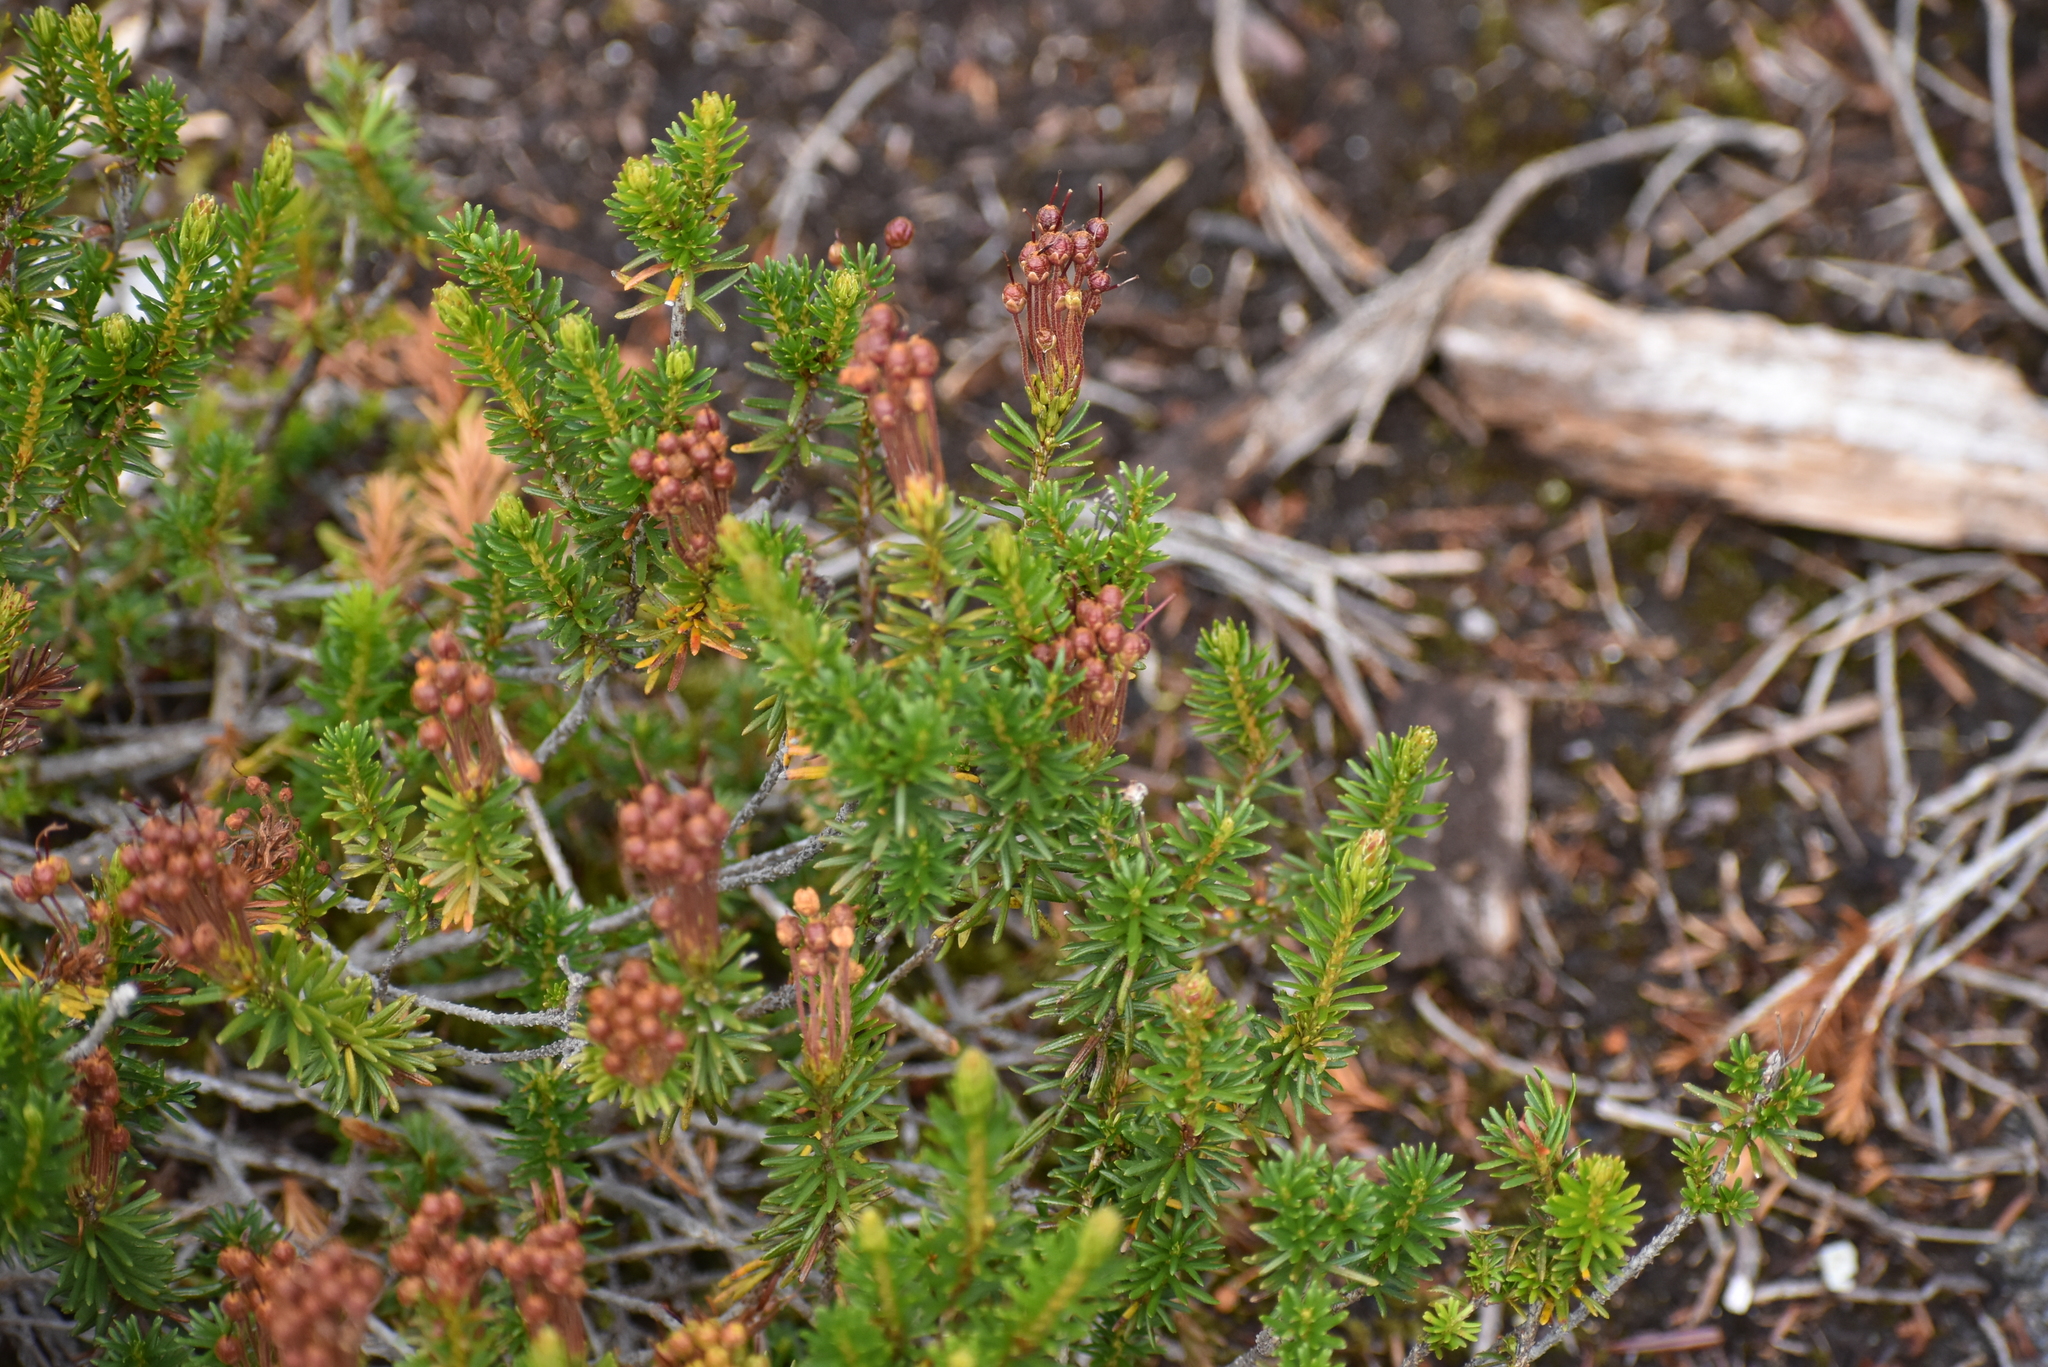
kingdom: Plantae
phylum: Tracheophyta
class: Magnoliopsida
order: Ericales
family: Ericaceae
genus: Phyllodoce
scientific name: Phyllodoce empetriformis
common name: Pink mountain heather
